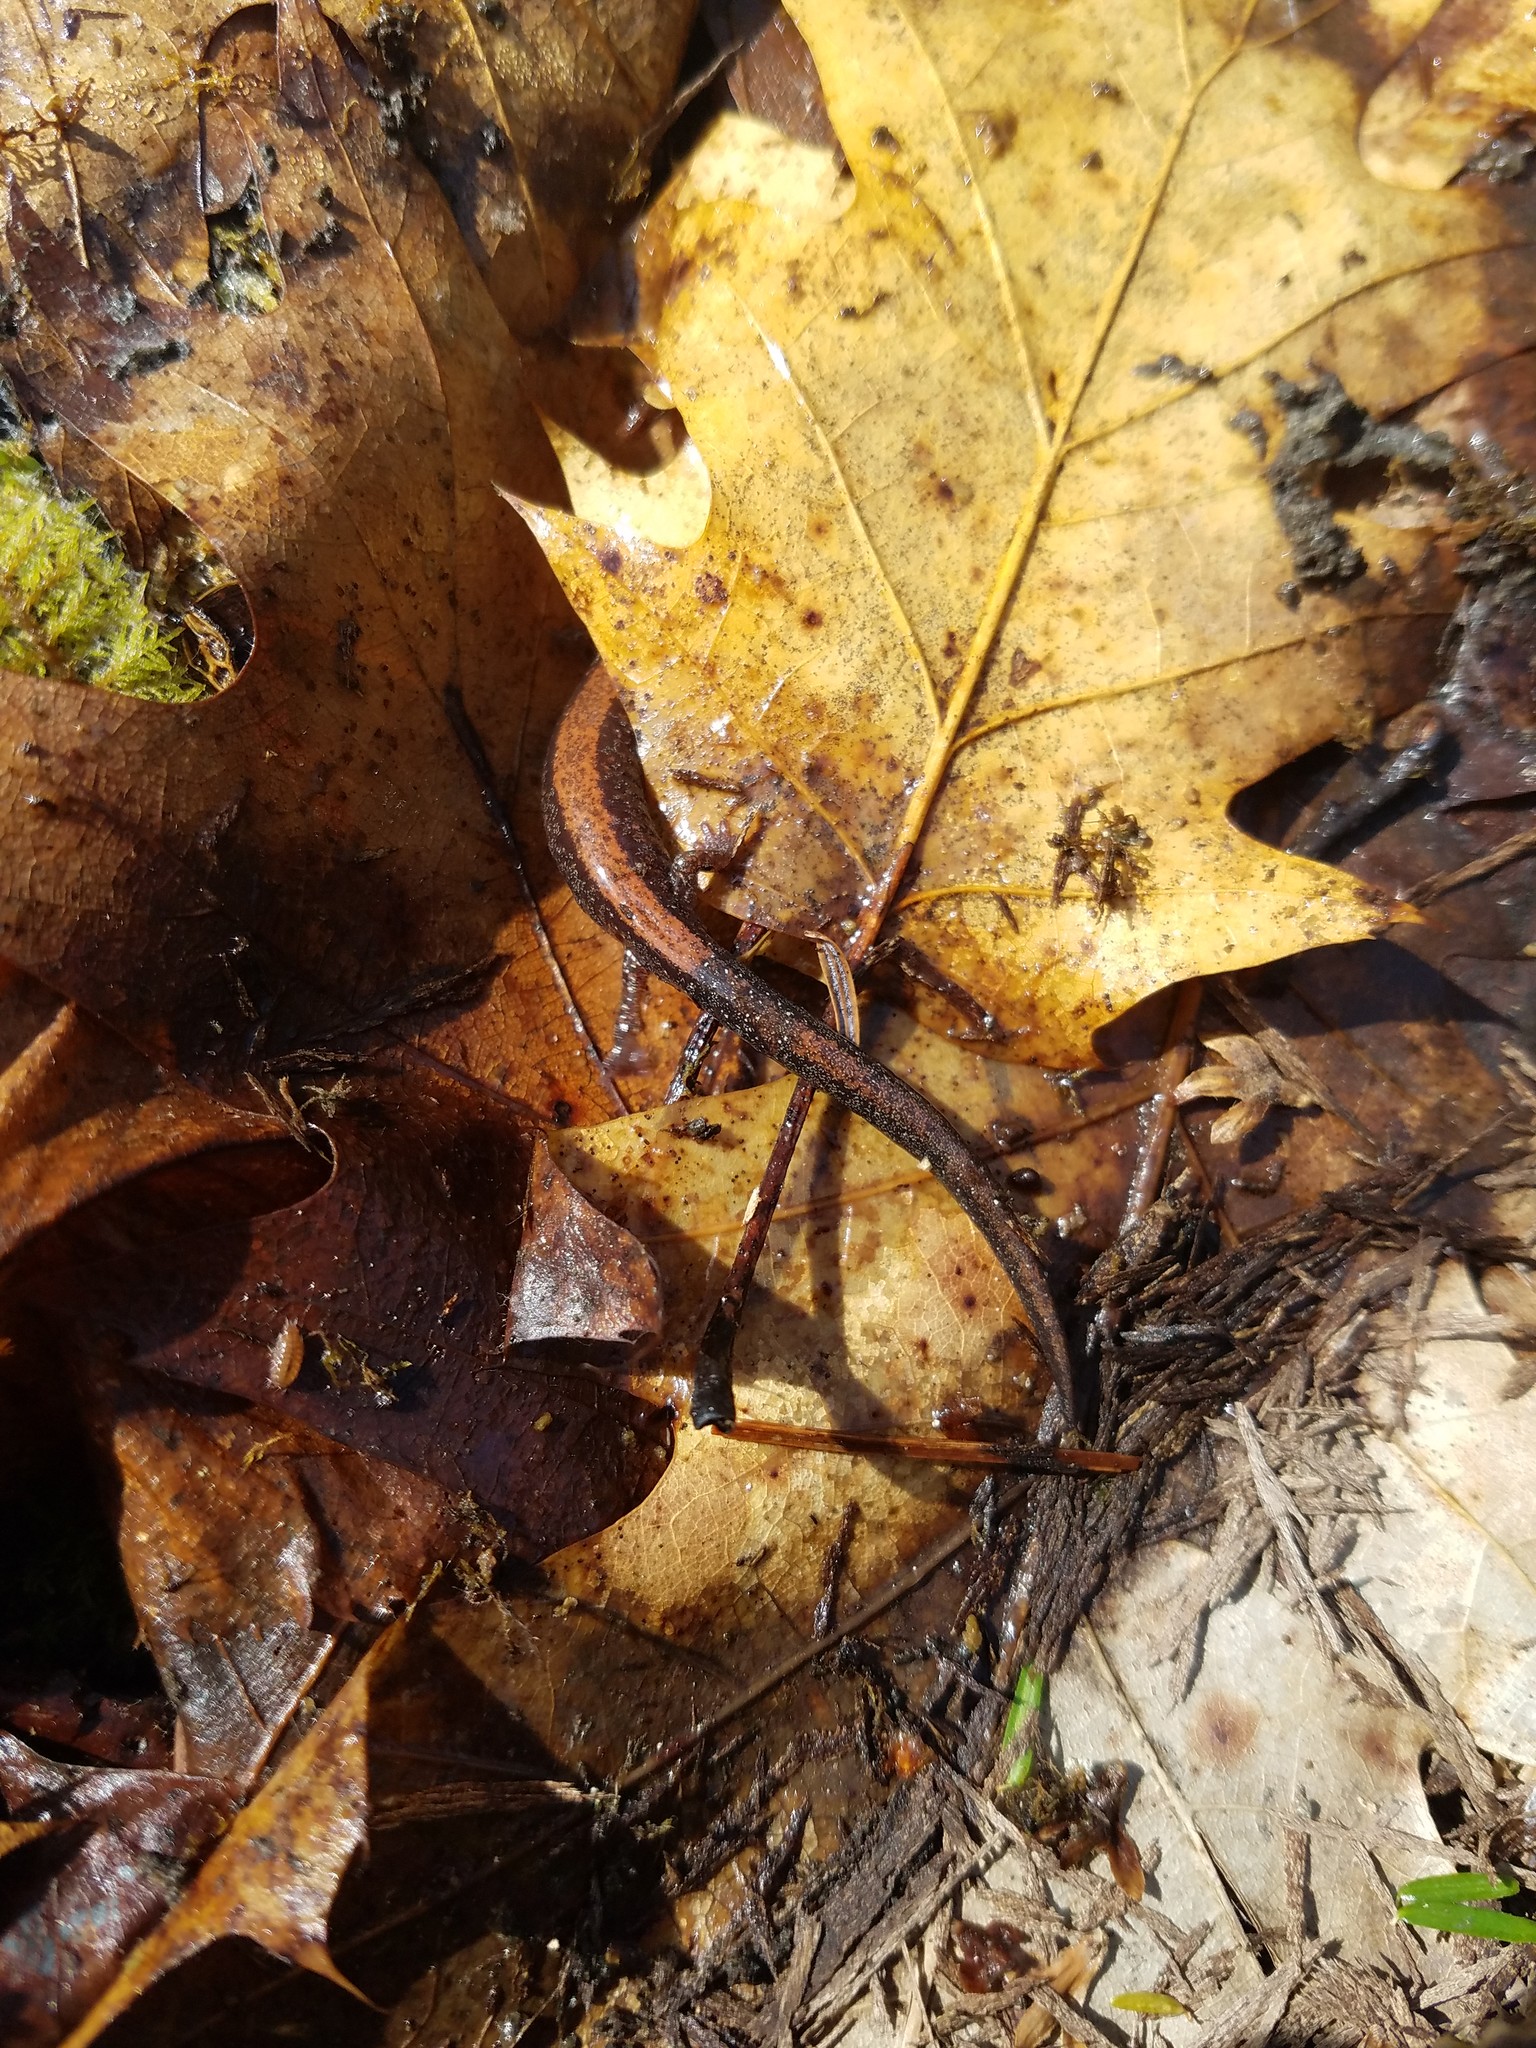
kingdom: Animalia
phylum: Chordata
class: Amphibia
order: Caudata
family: Plethodontidae
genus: Plethodon
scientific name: Plethodon cinereus
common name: Redback salamander
